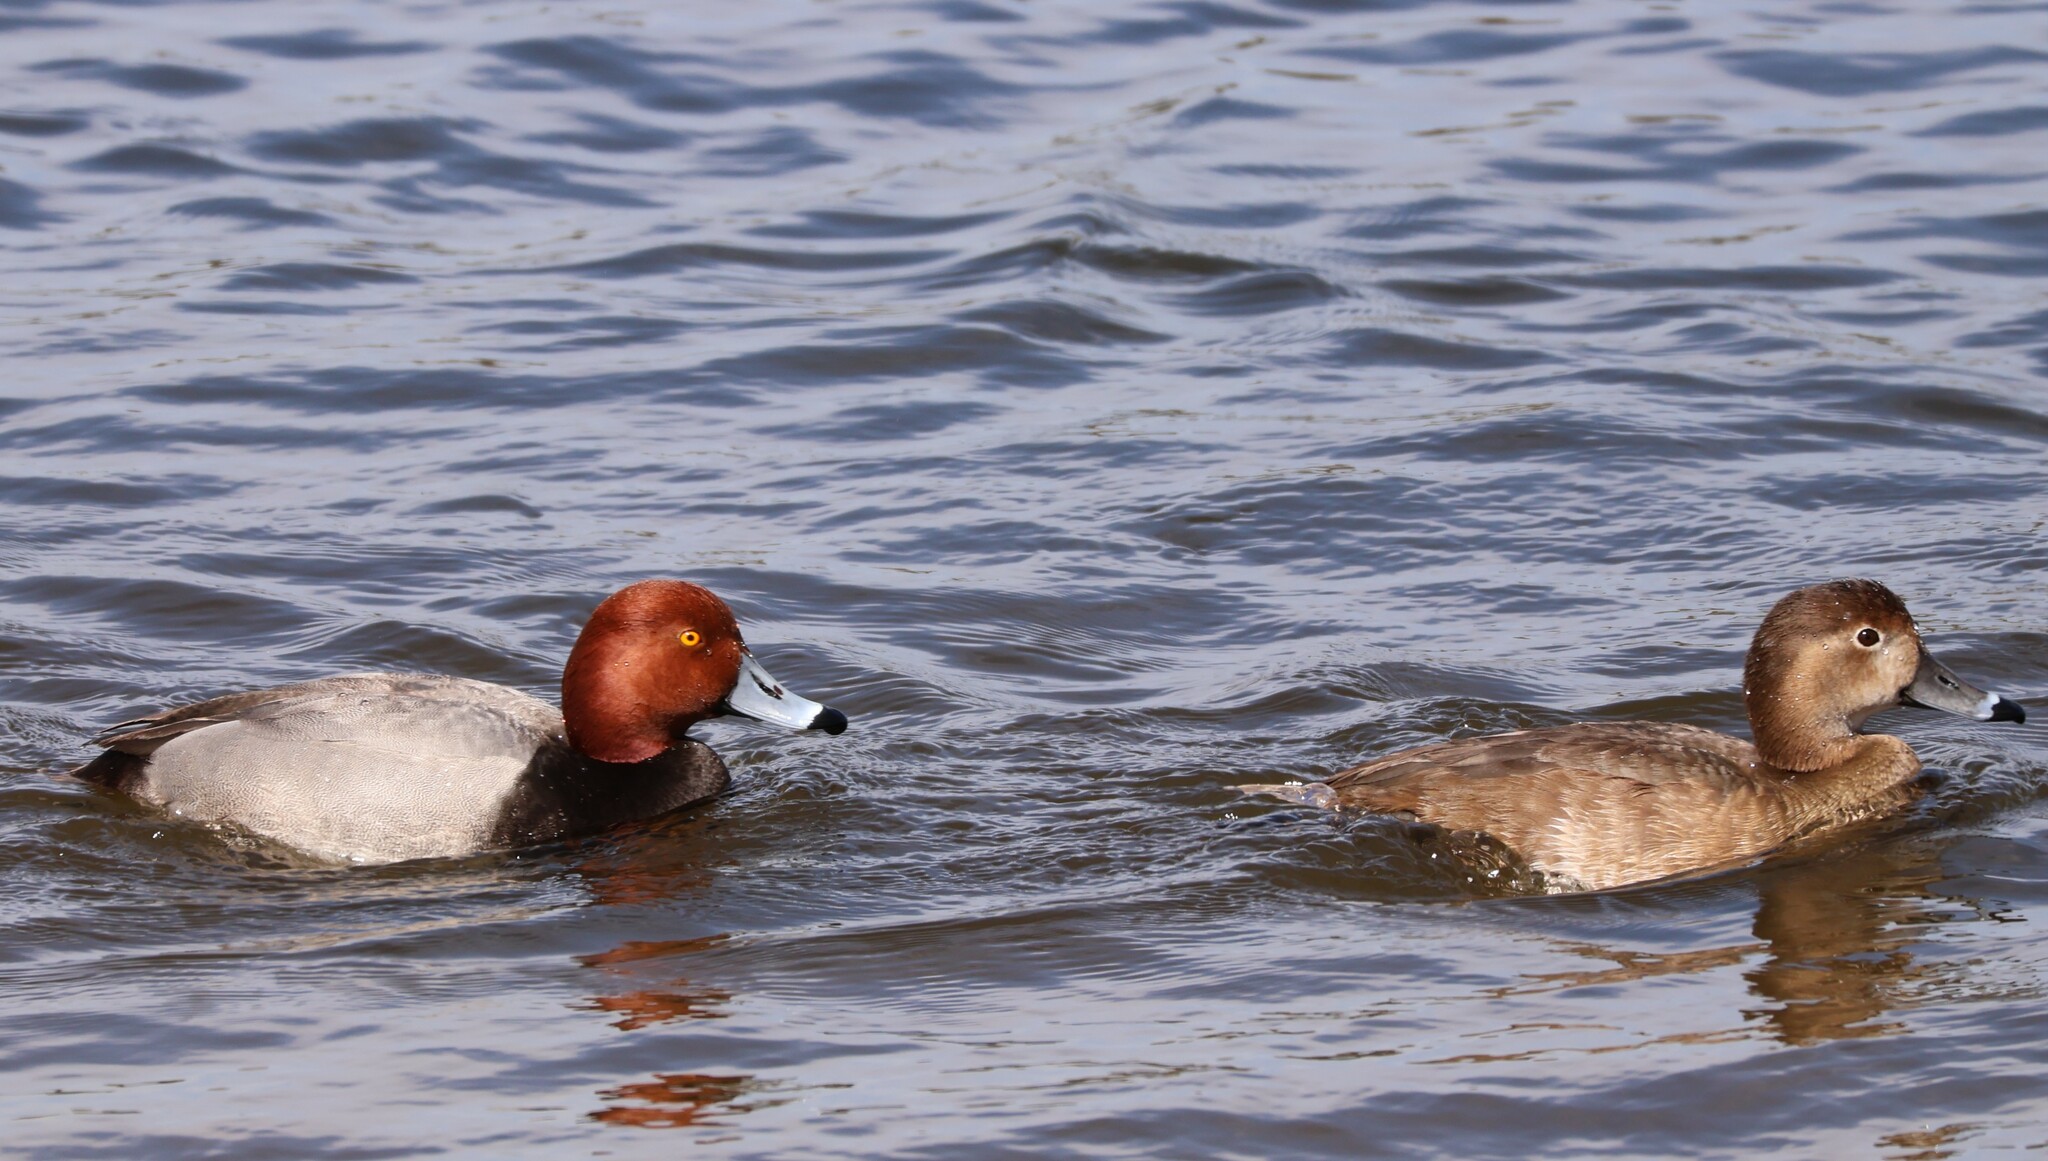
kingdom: Animalia
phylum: Chordata
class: Aves
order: Anseriformes
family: Anatidae
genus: Aythya
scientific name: Aythya americana
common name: Redhead
